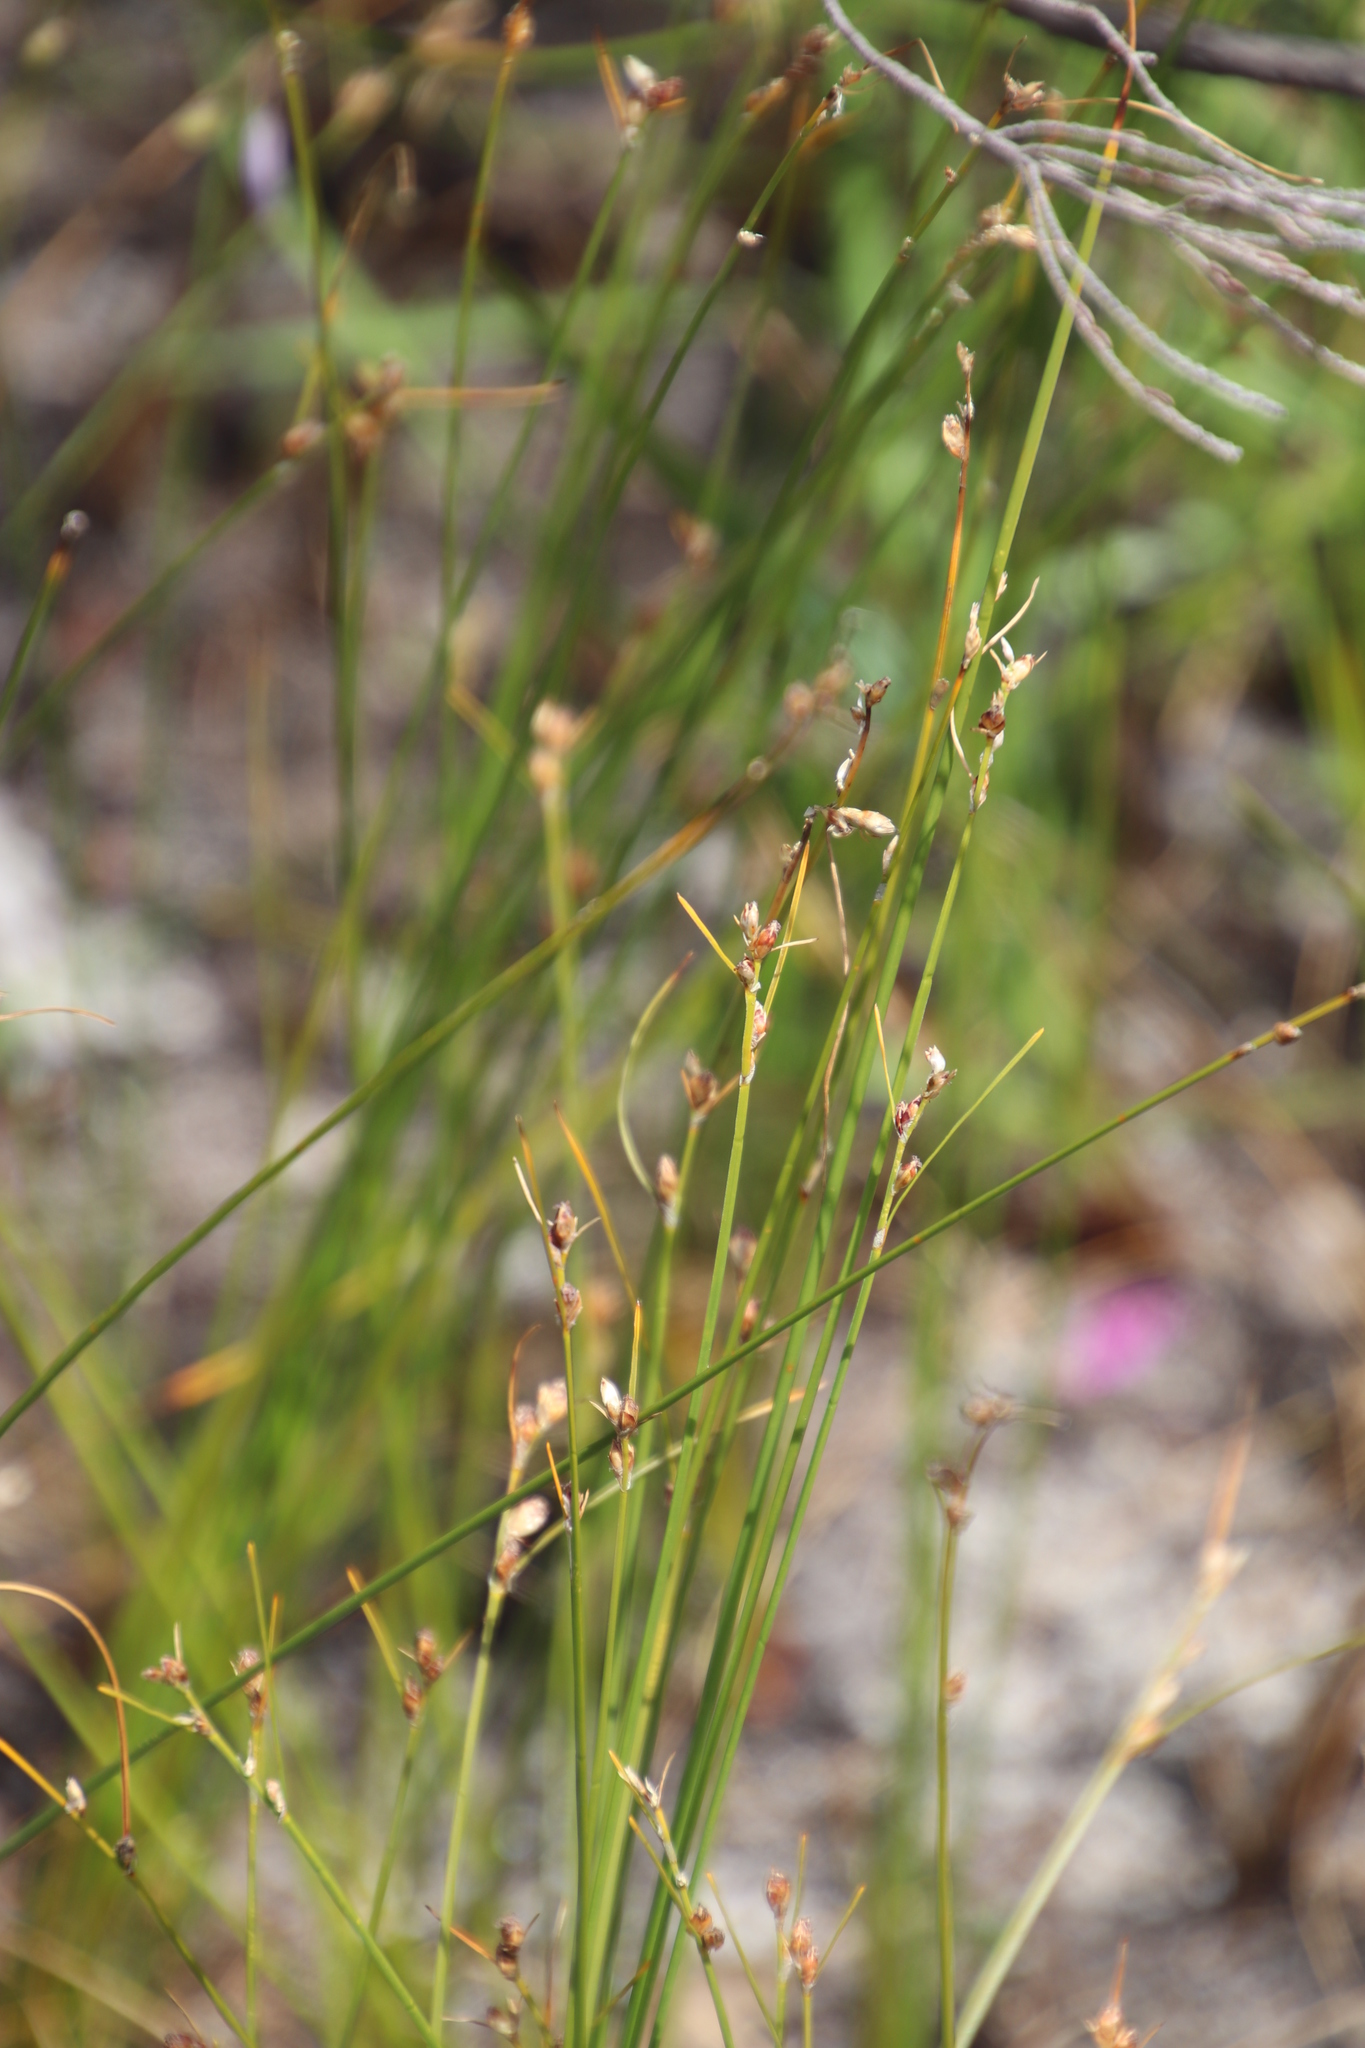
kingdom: Plantae
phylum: Tracheophyta
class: Liliopsida
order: Poales
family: Cyperaceae
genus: Ficinia
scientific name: Ficinia secunda
